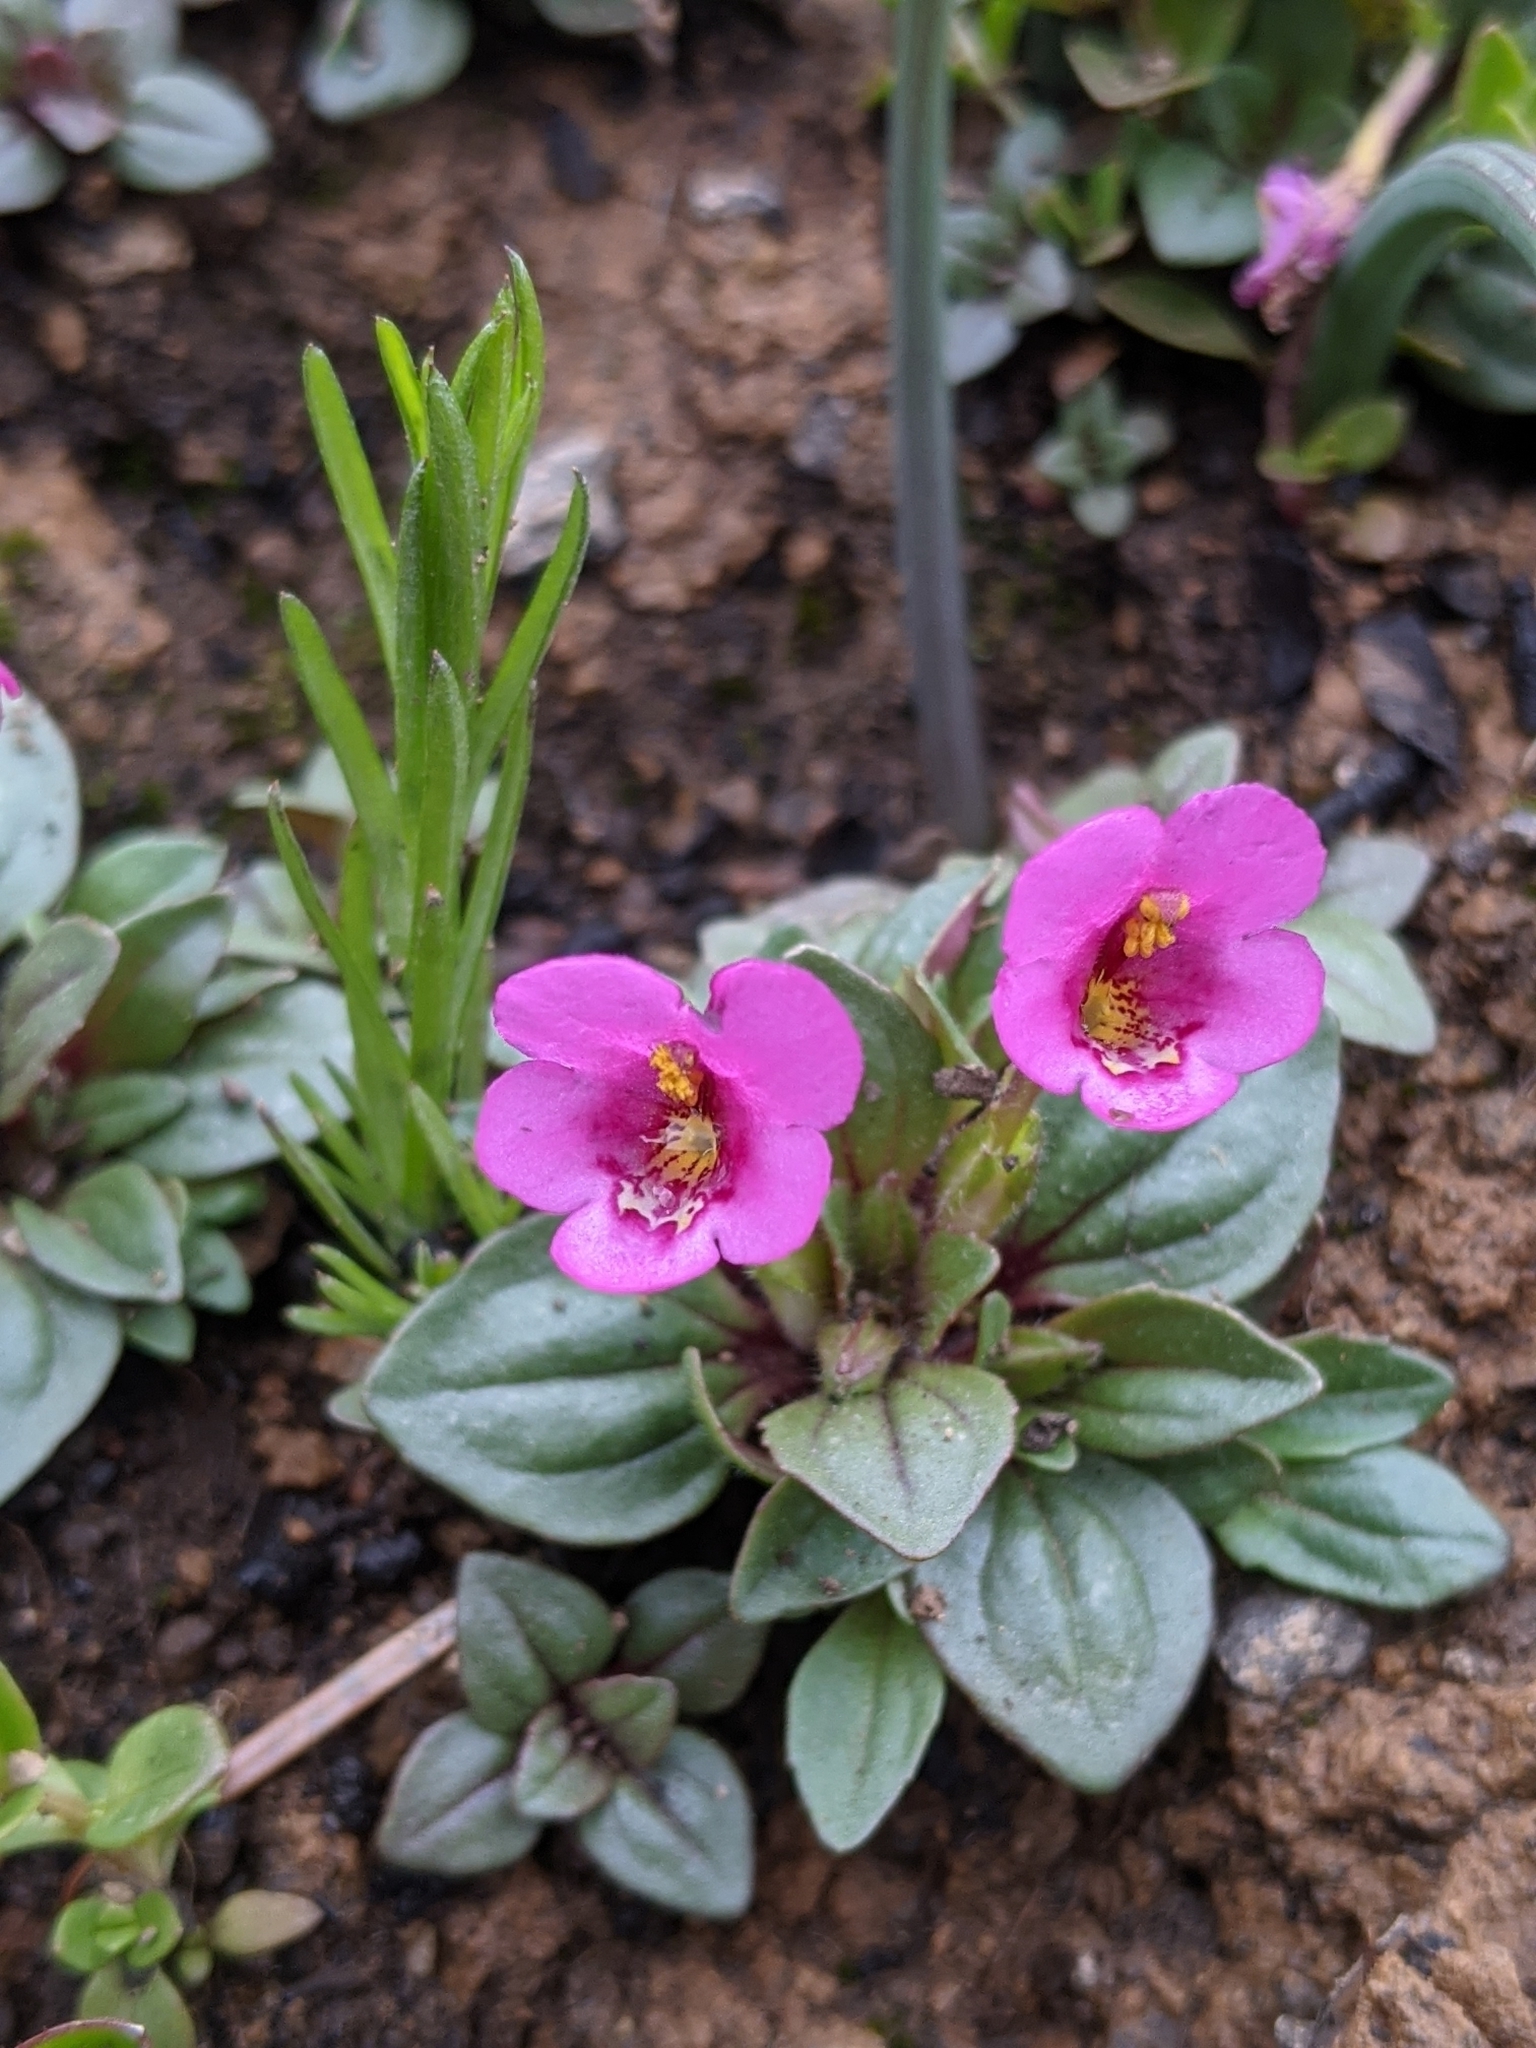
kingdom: Plantae
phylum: Tracheophyta
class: Magnoliopsida
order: Lamiales
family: Phrymaceae
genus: Diplacus
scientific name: Diplacus congdonii
